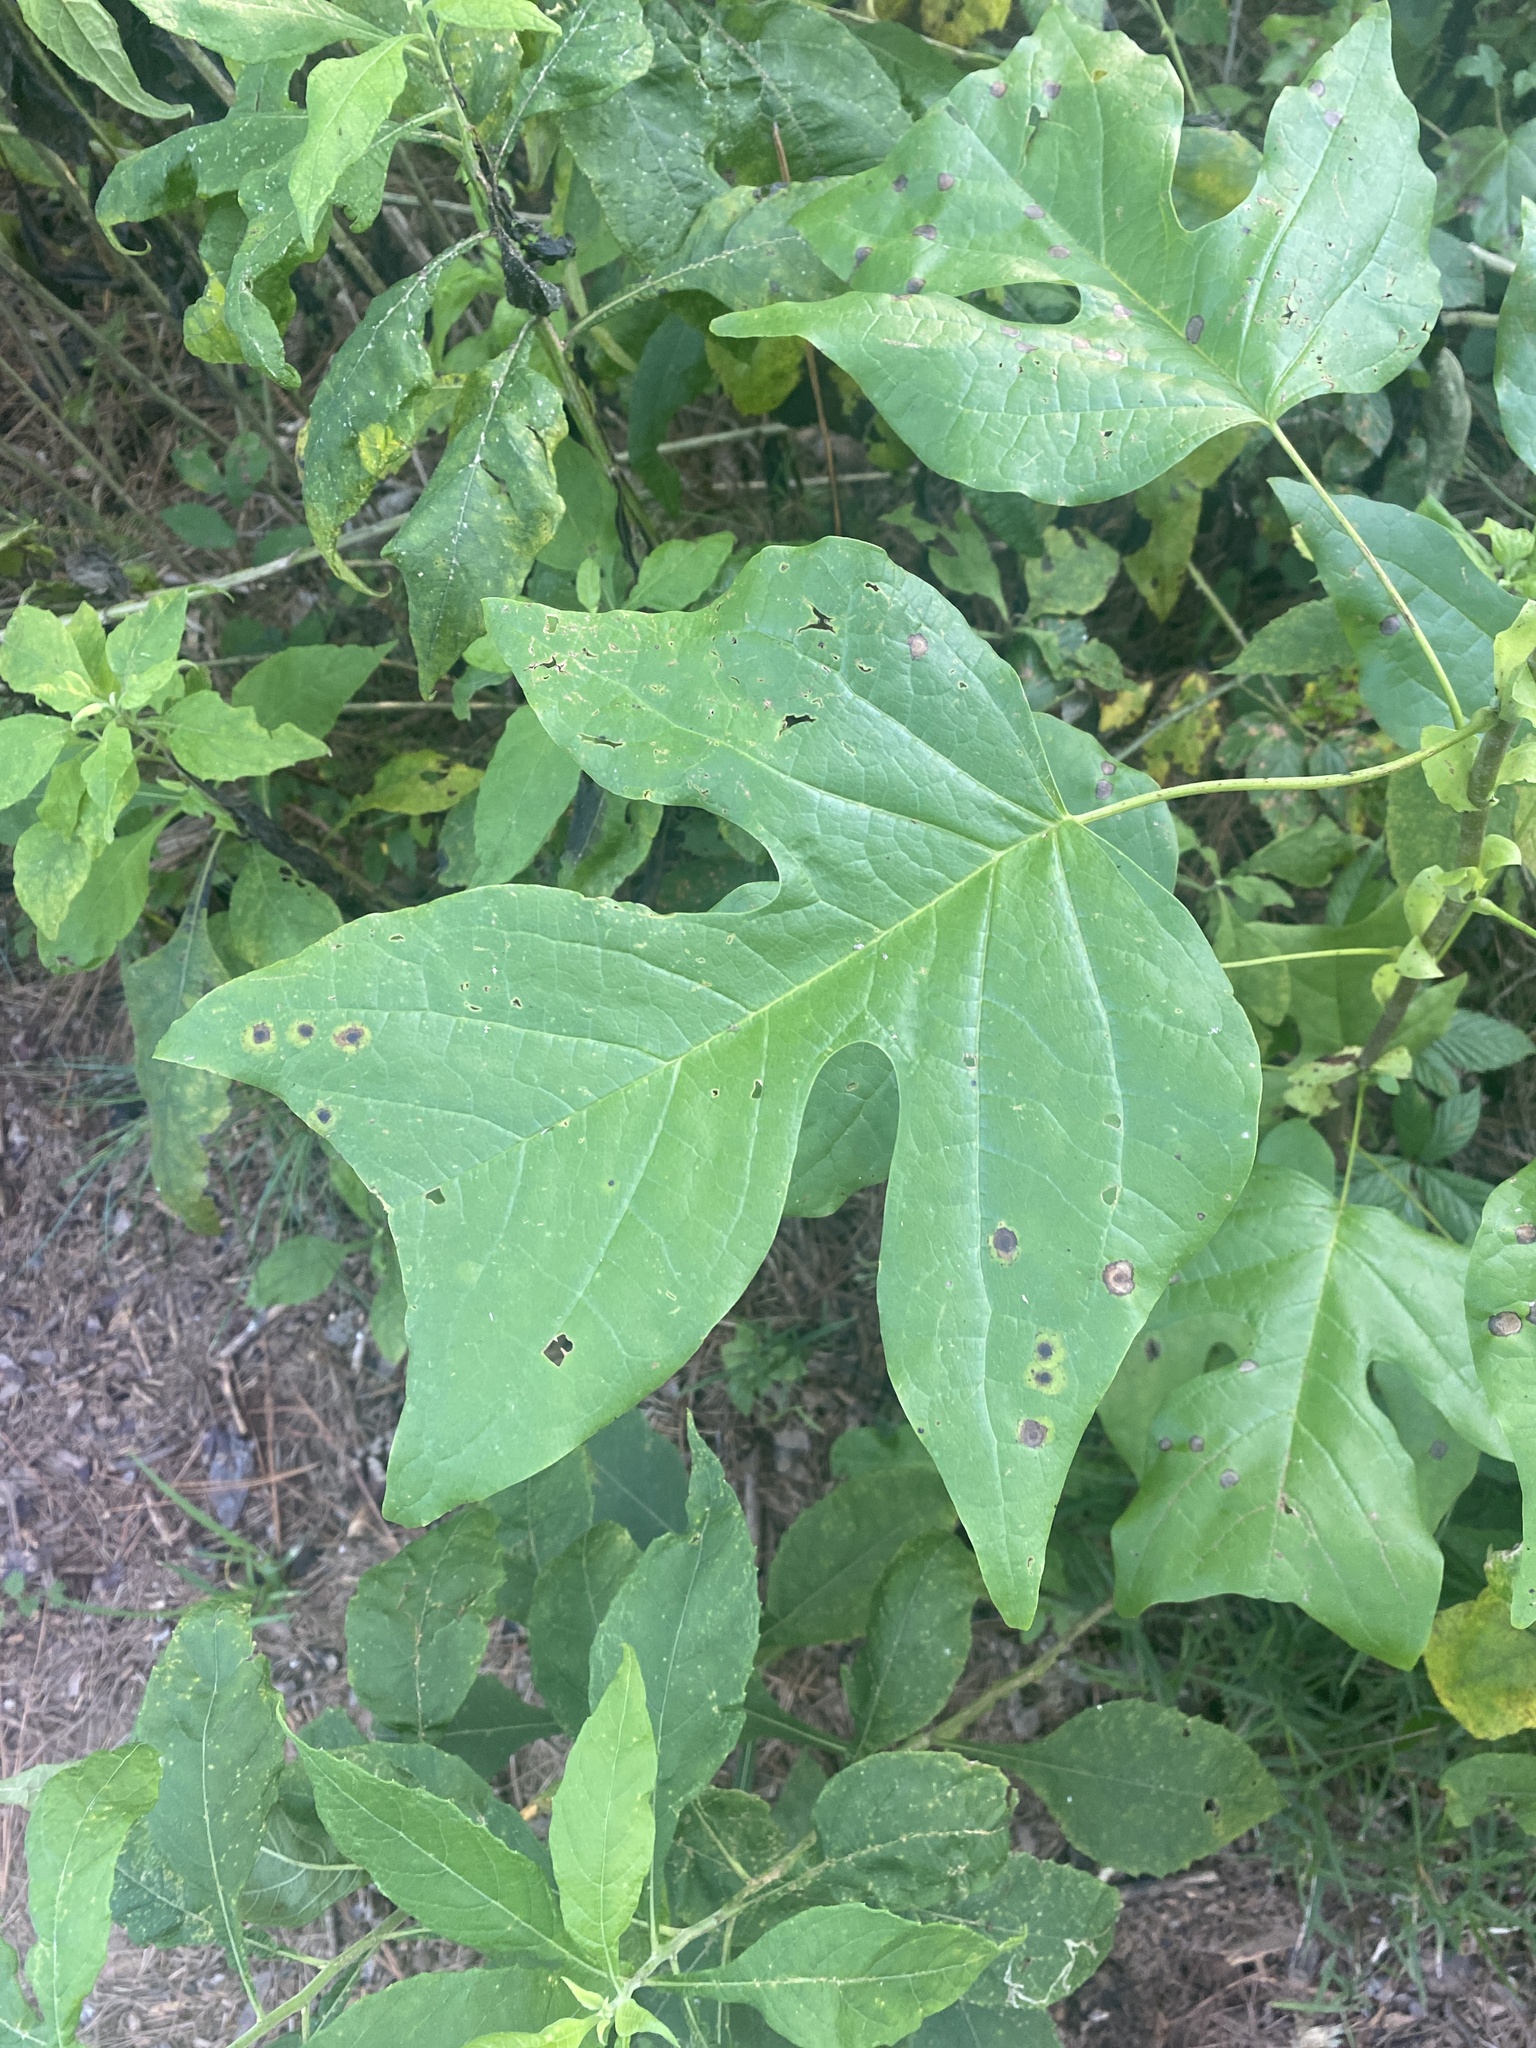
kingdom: Plantae
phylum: Tracheophyta
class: Magnoliopsida
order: Magnoliales
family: Magnoliaceae
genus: Liriodendron
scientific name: Liriodendron tulipifera
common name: Tulip tree
